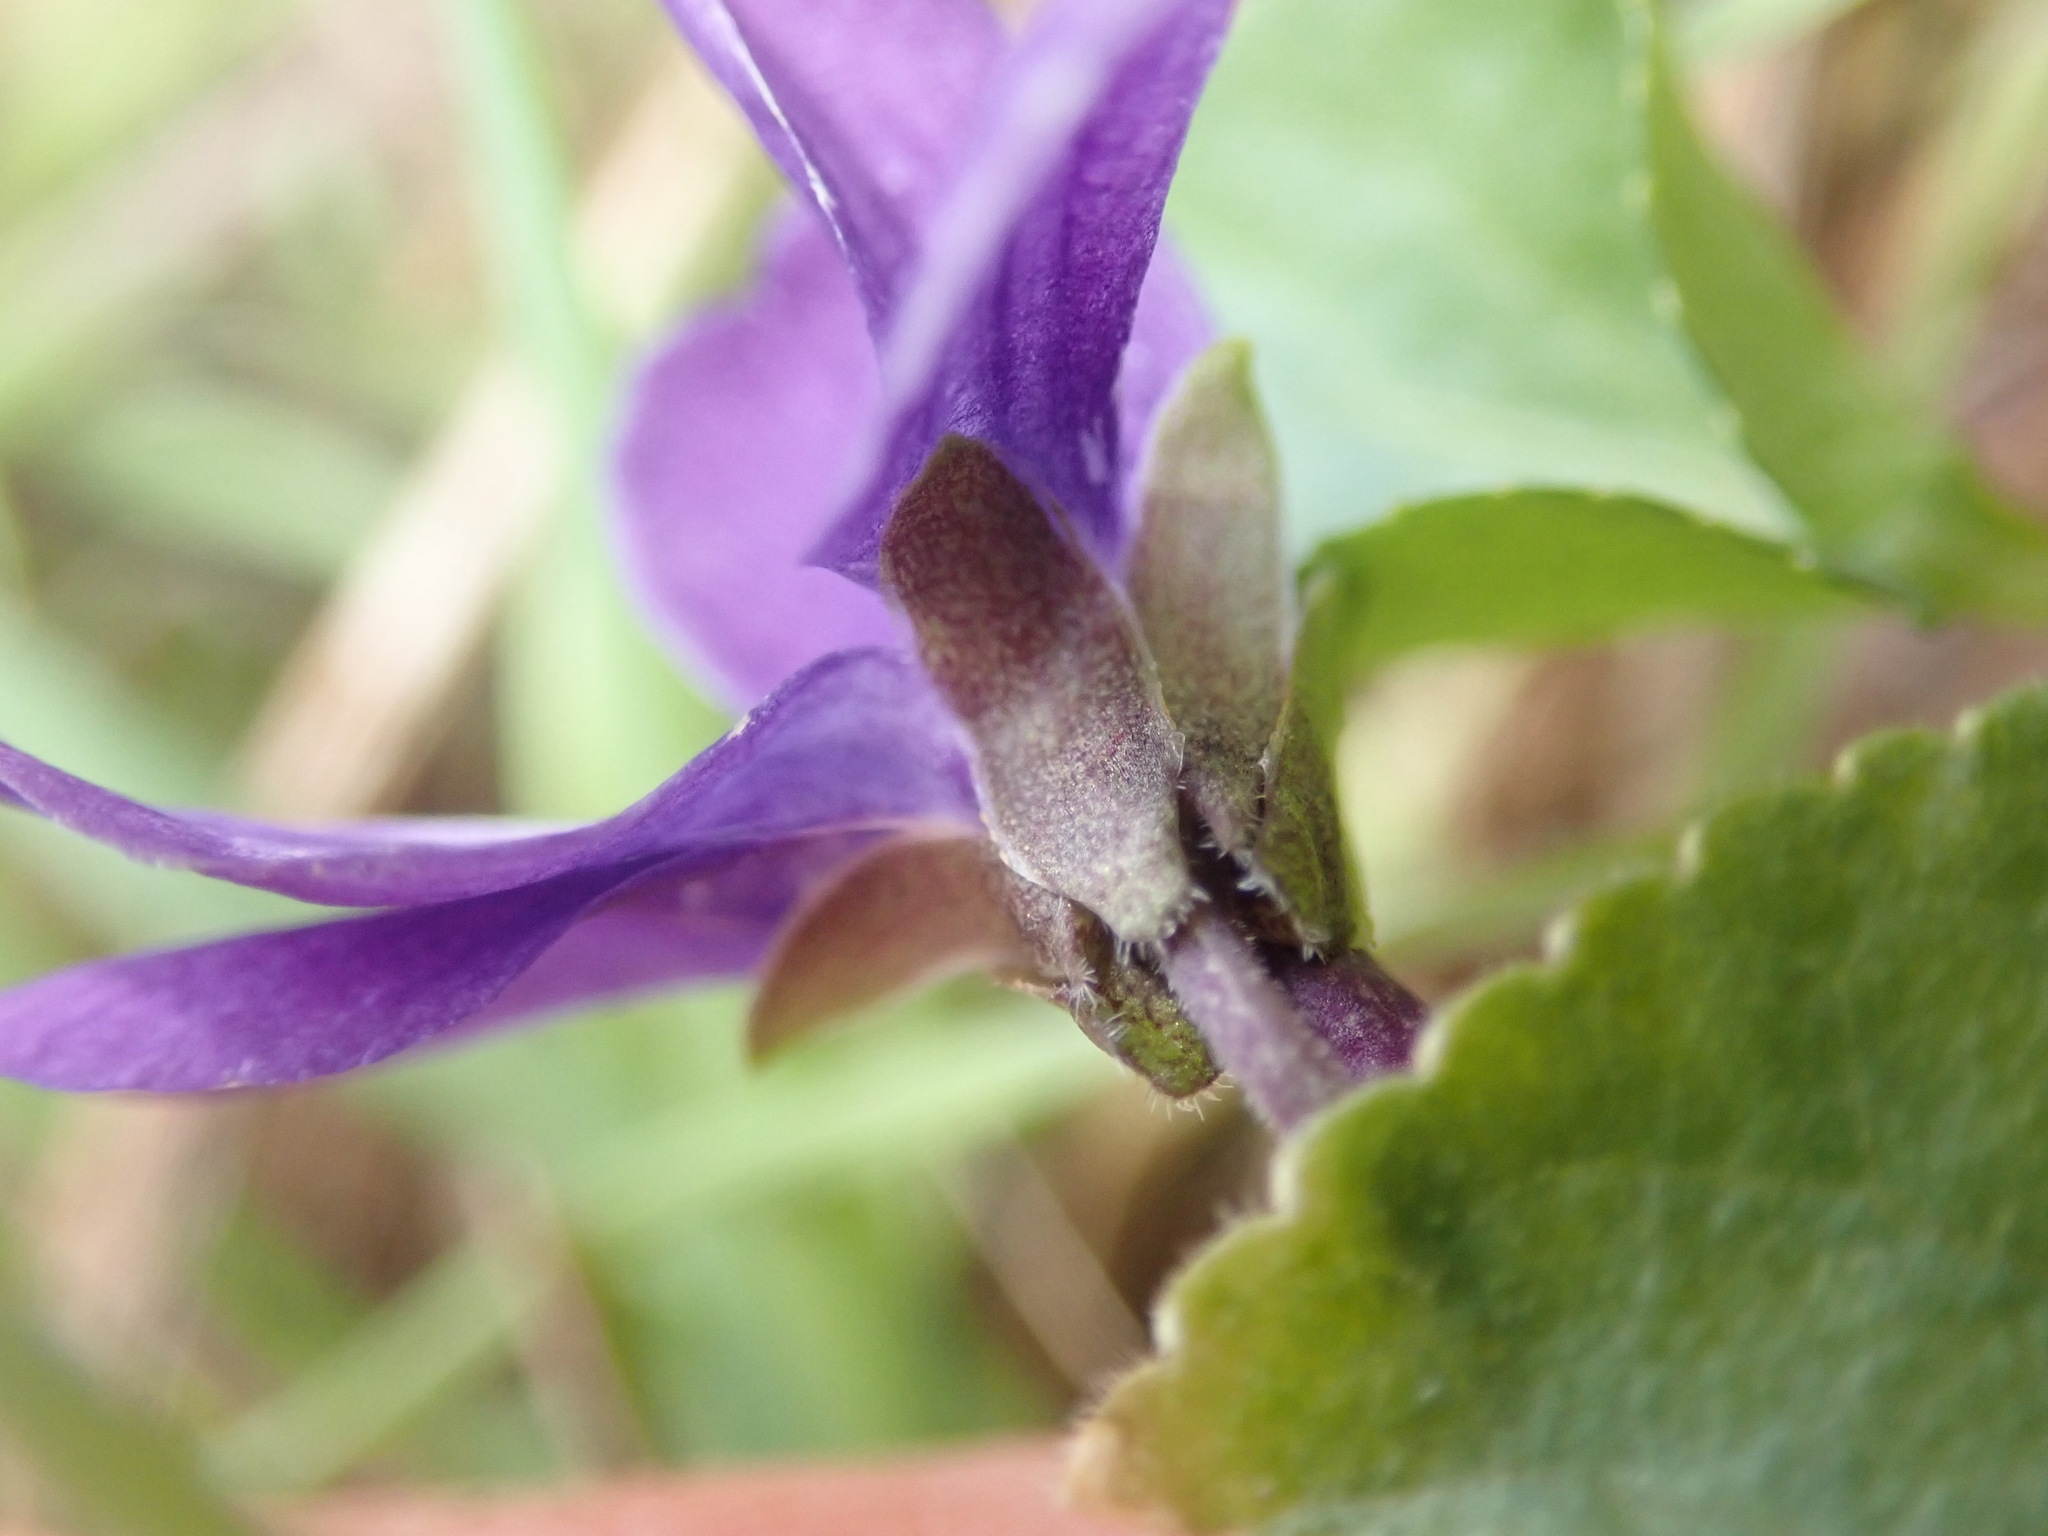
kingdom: Plantae
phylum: Tracheophyta
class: Magnoliopsida
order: Malpighiales
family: Violaceae
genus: Viola
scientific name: Viola odorata
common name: Sweet violet
